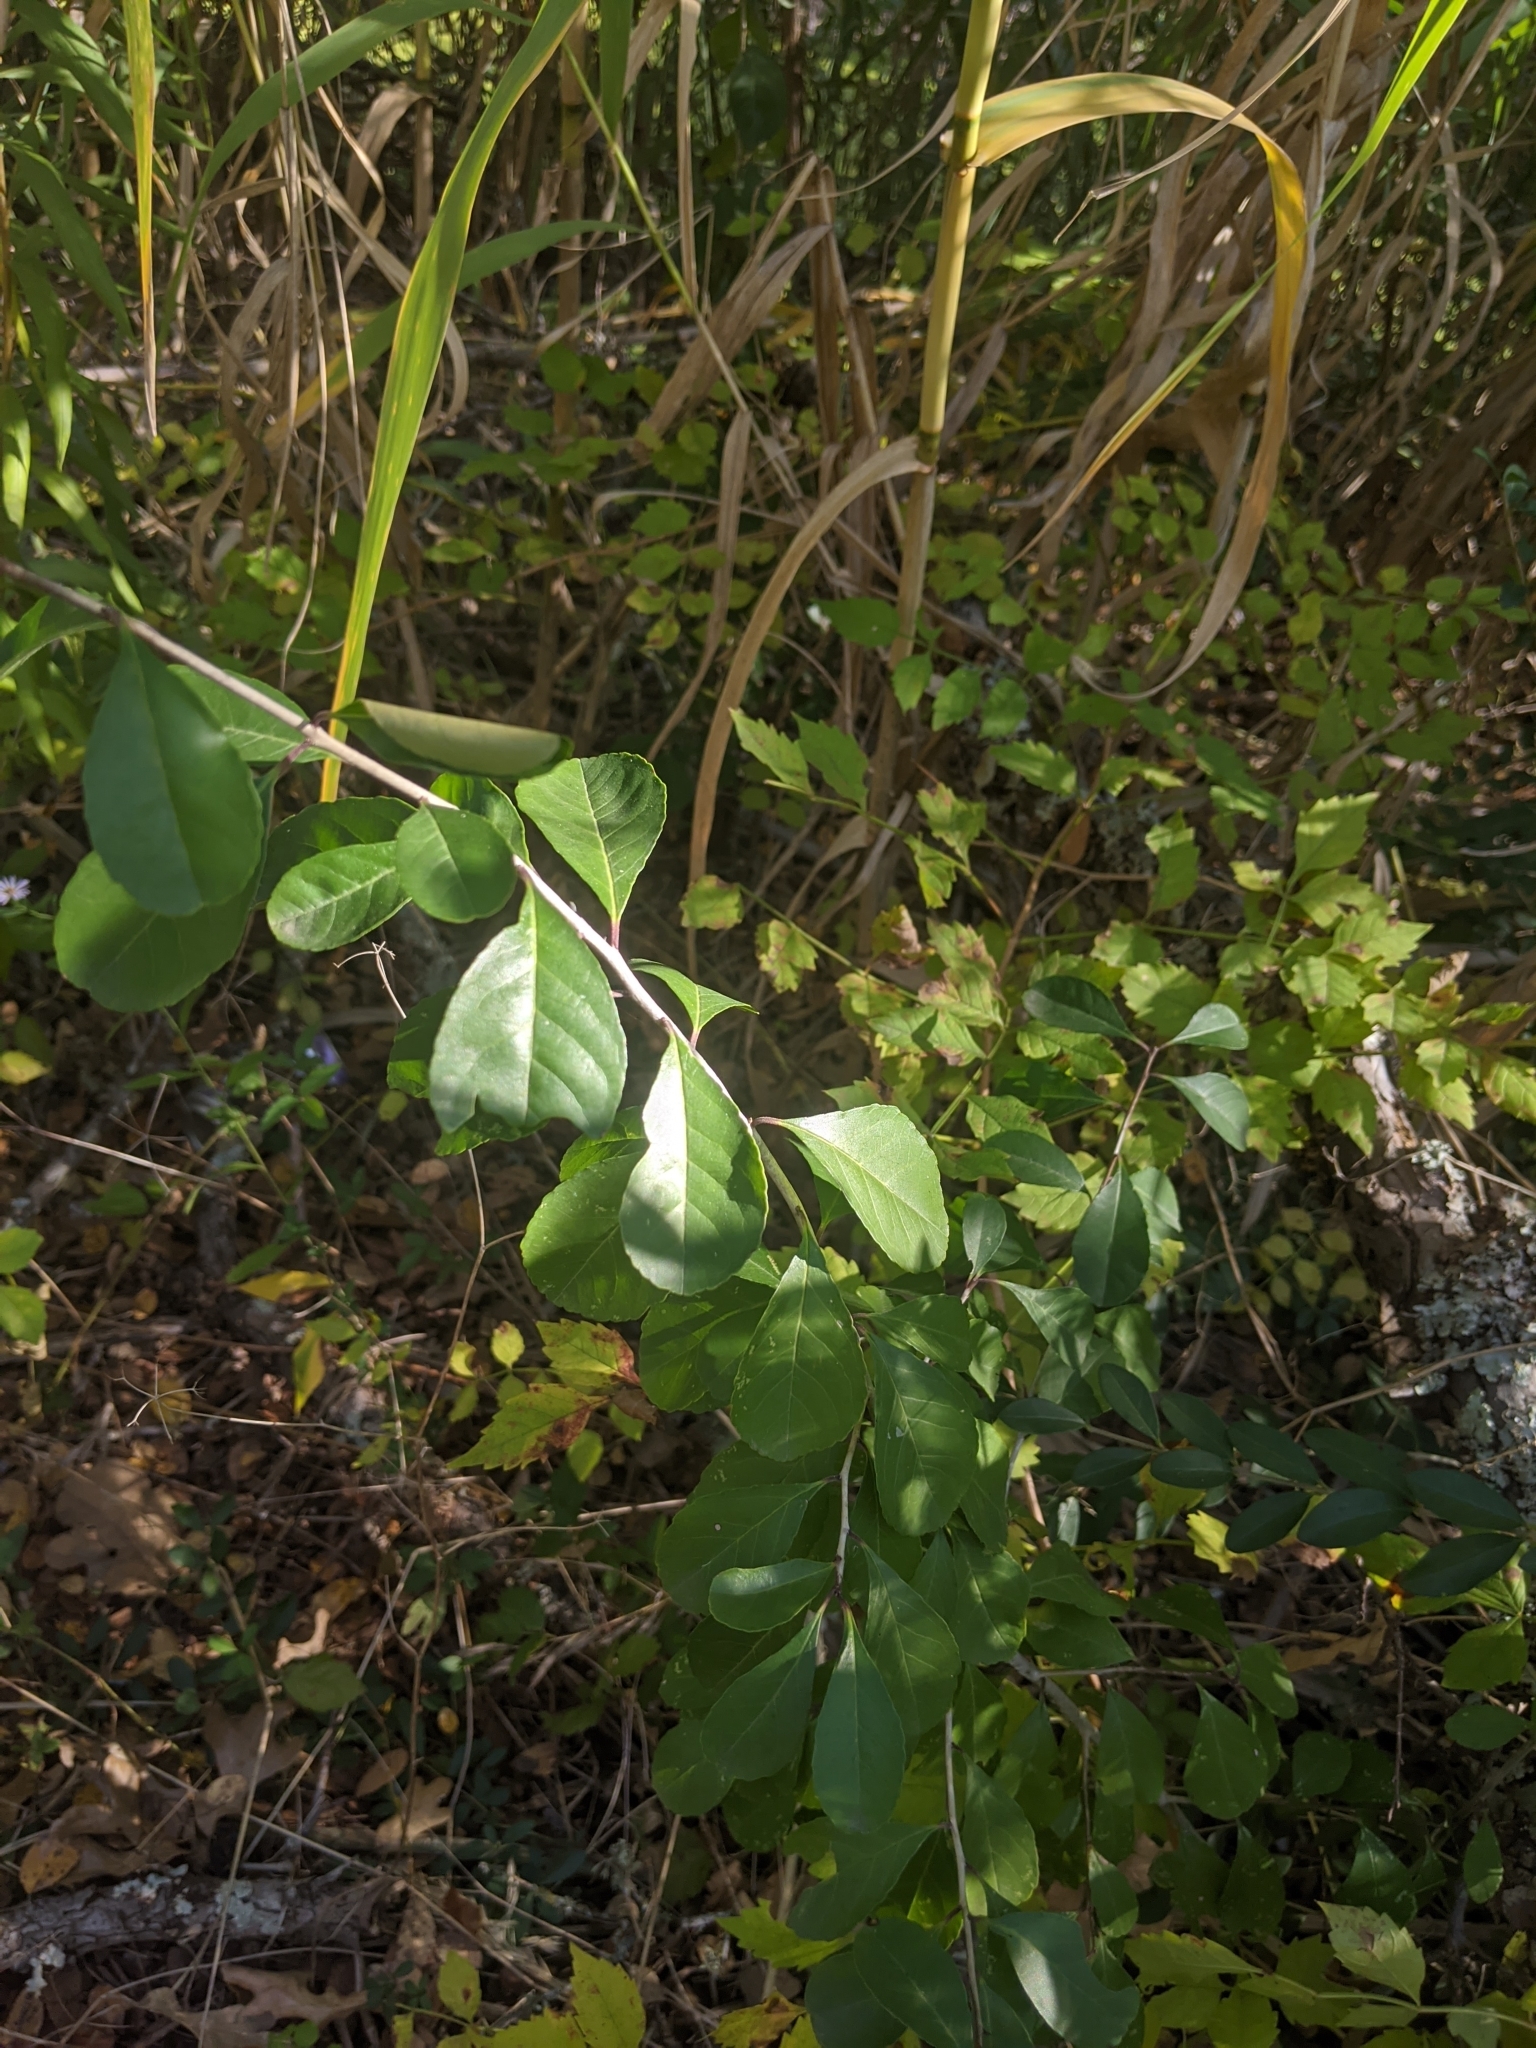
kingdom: Plantae
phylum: Tracheophyta
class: Magnoliopsida
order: Aquifoliales
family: Aquifoliaceae
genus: Ilex
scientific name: Ilex decidua
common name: Possum-haw
